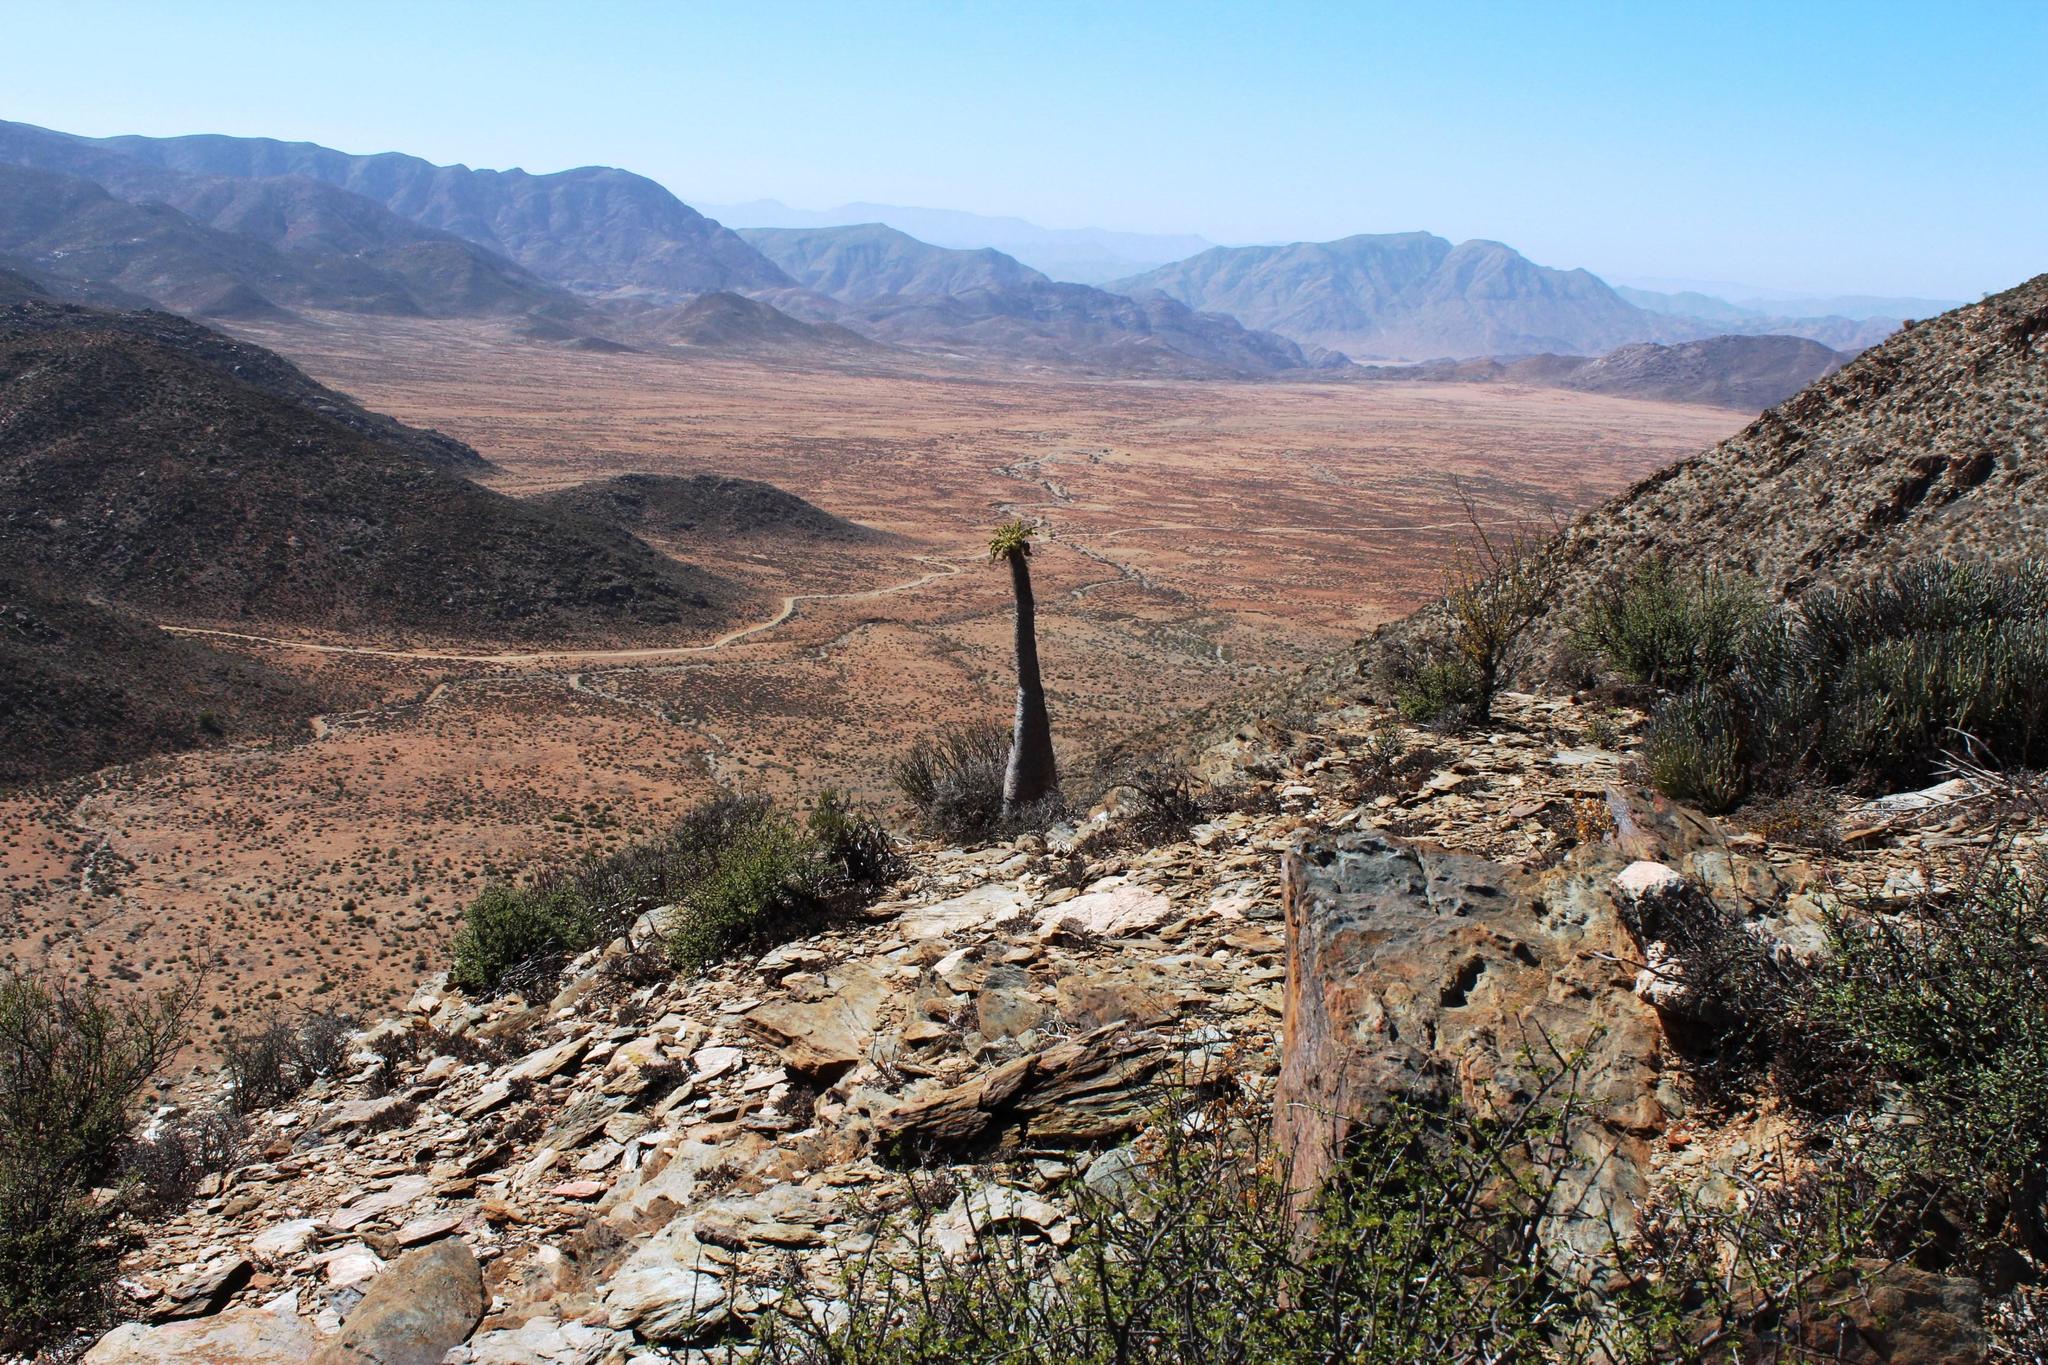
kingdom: Plantae
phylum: Tracheophyta
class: Magnoliopsida
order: Gentianales
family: Apocynaceae
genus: Pachypodium
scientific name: Pachypodium namaquanum
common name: Elephant's trunk
